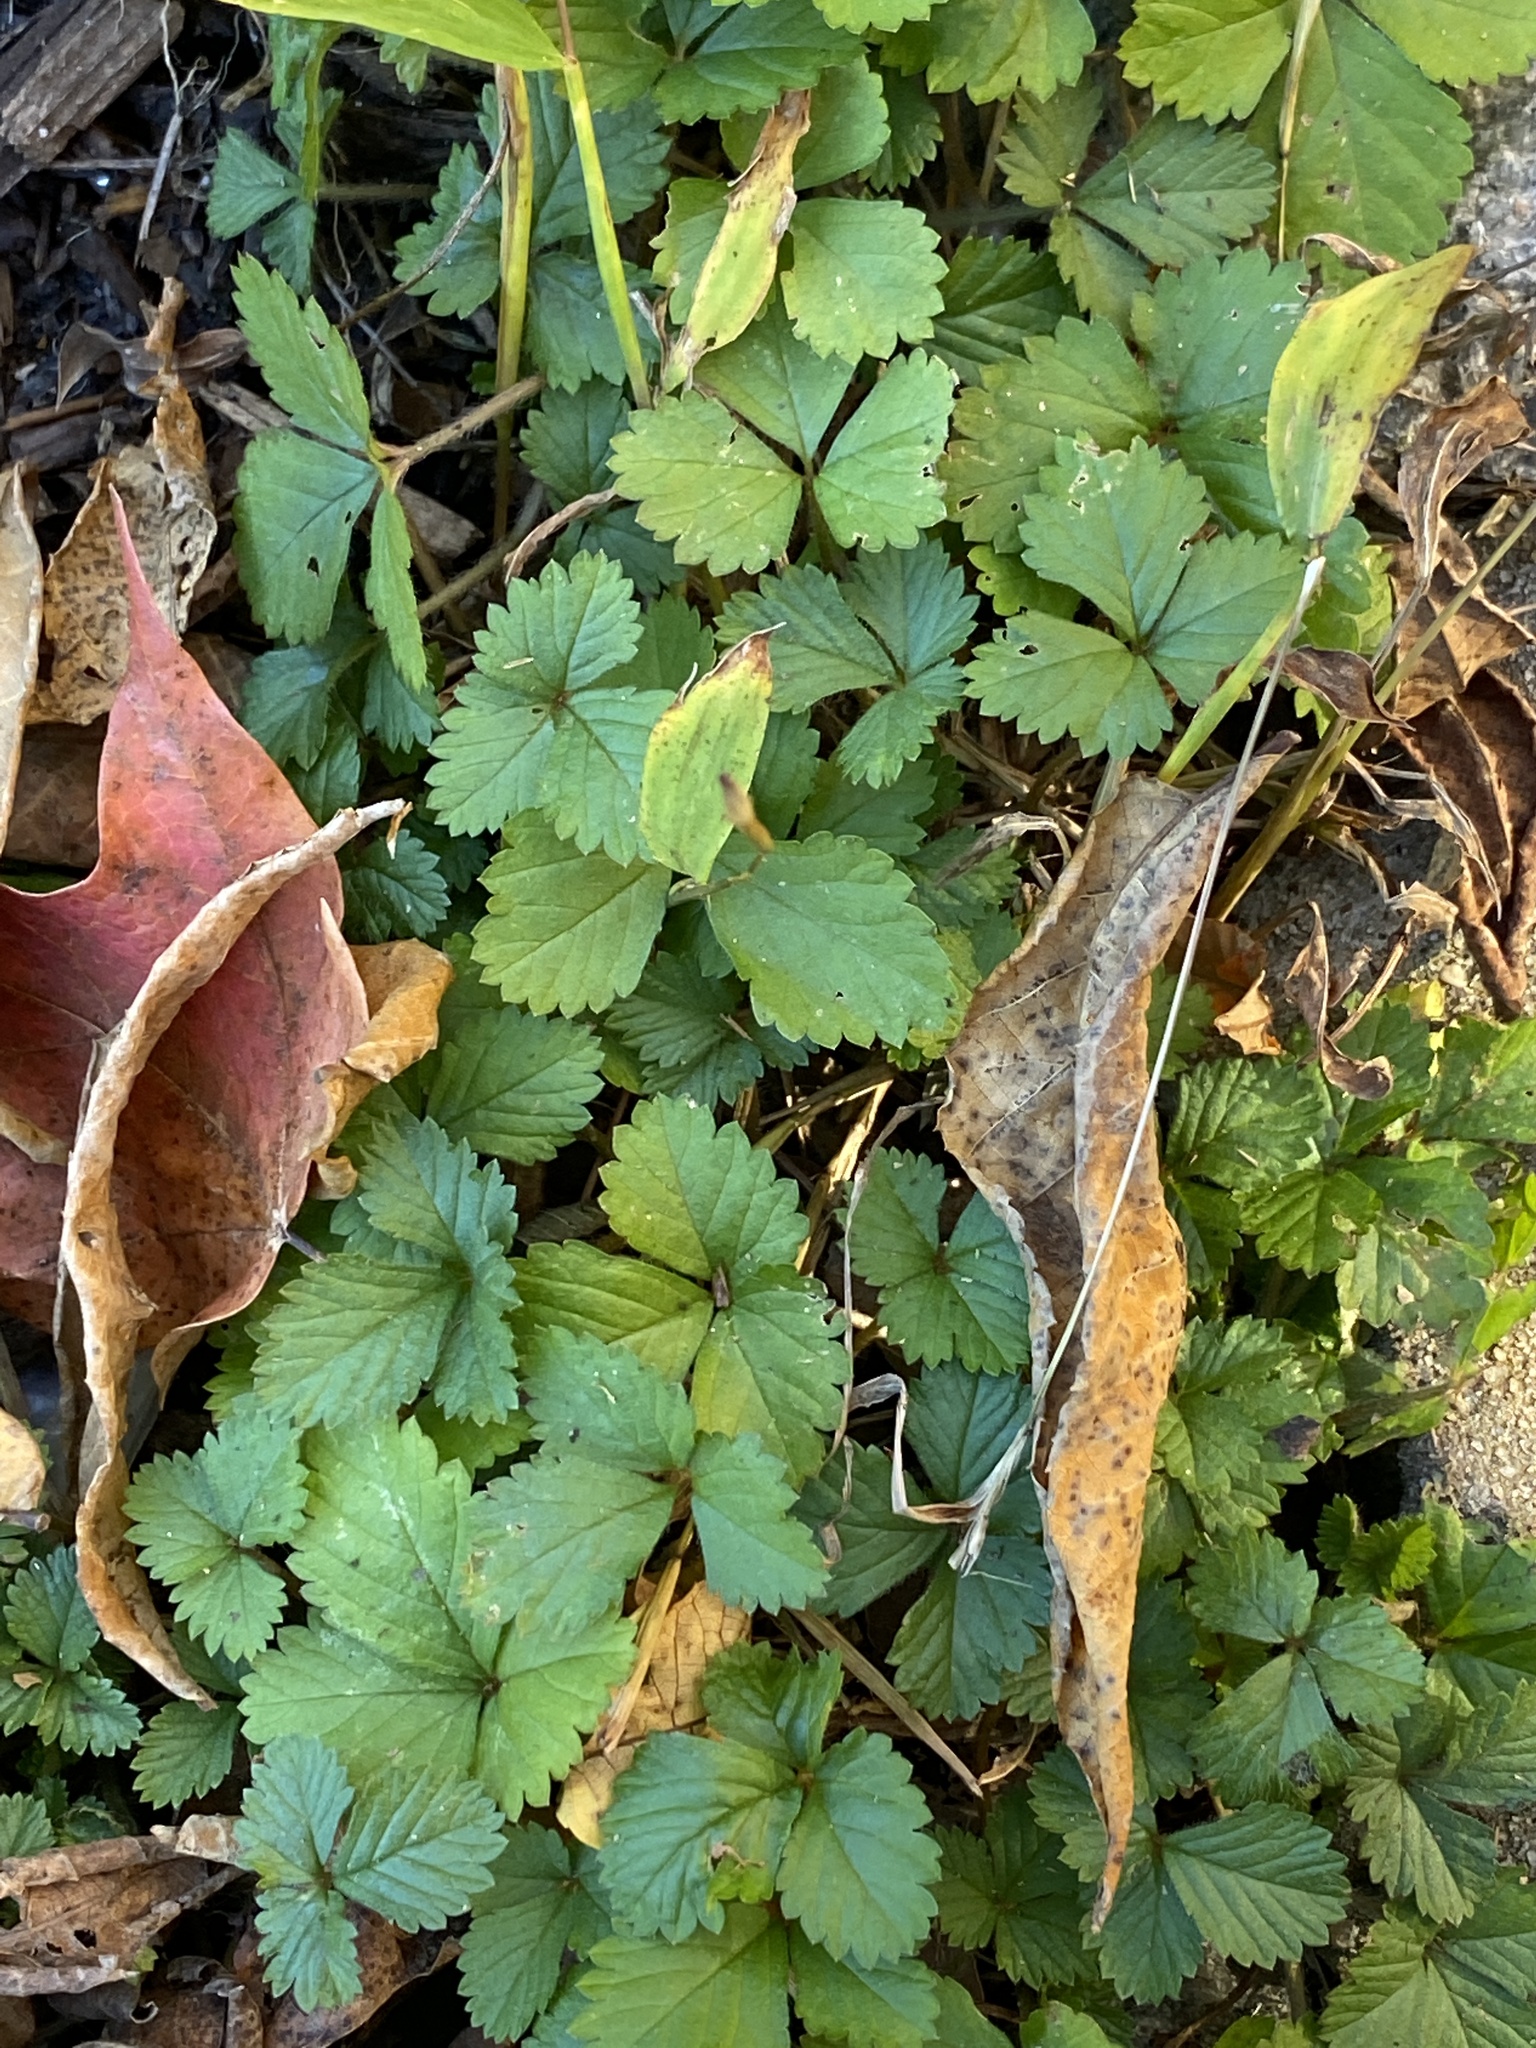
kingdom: Plantae
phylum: Tracheophyta
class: Magnoliopsida
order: Rosales
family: Rosaceae
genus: Potentilla
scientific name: Potentilla indica
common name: Yellow-flowered strawberry
